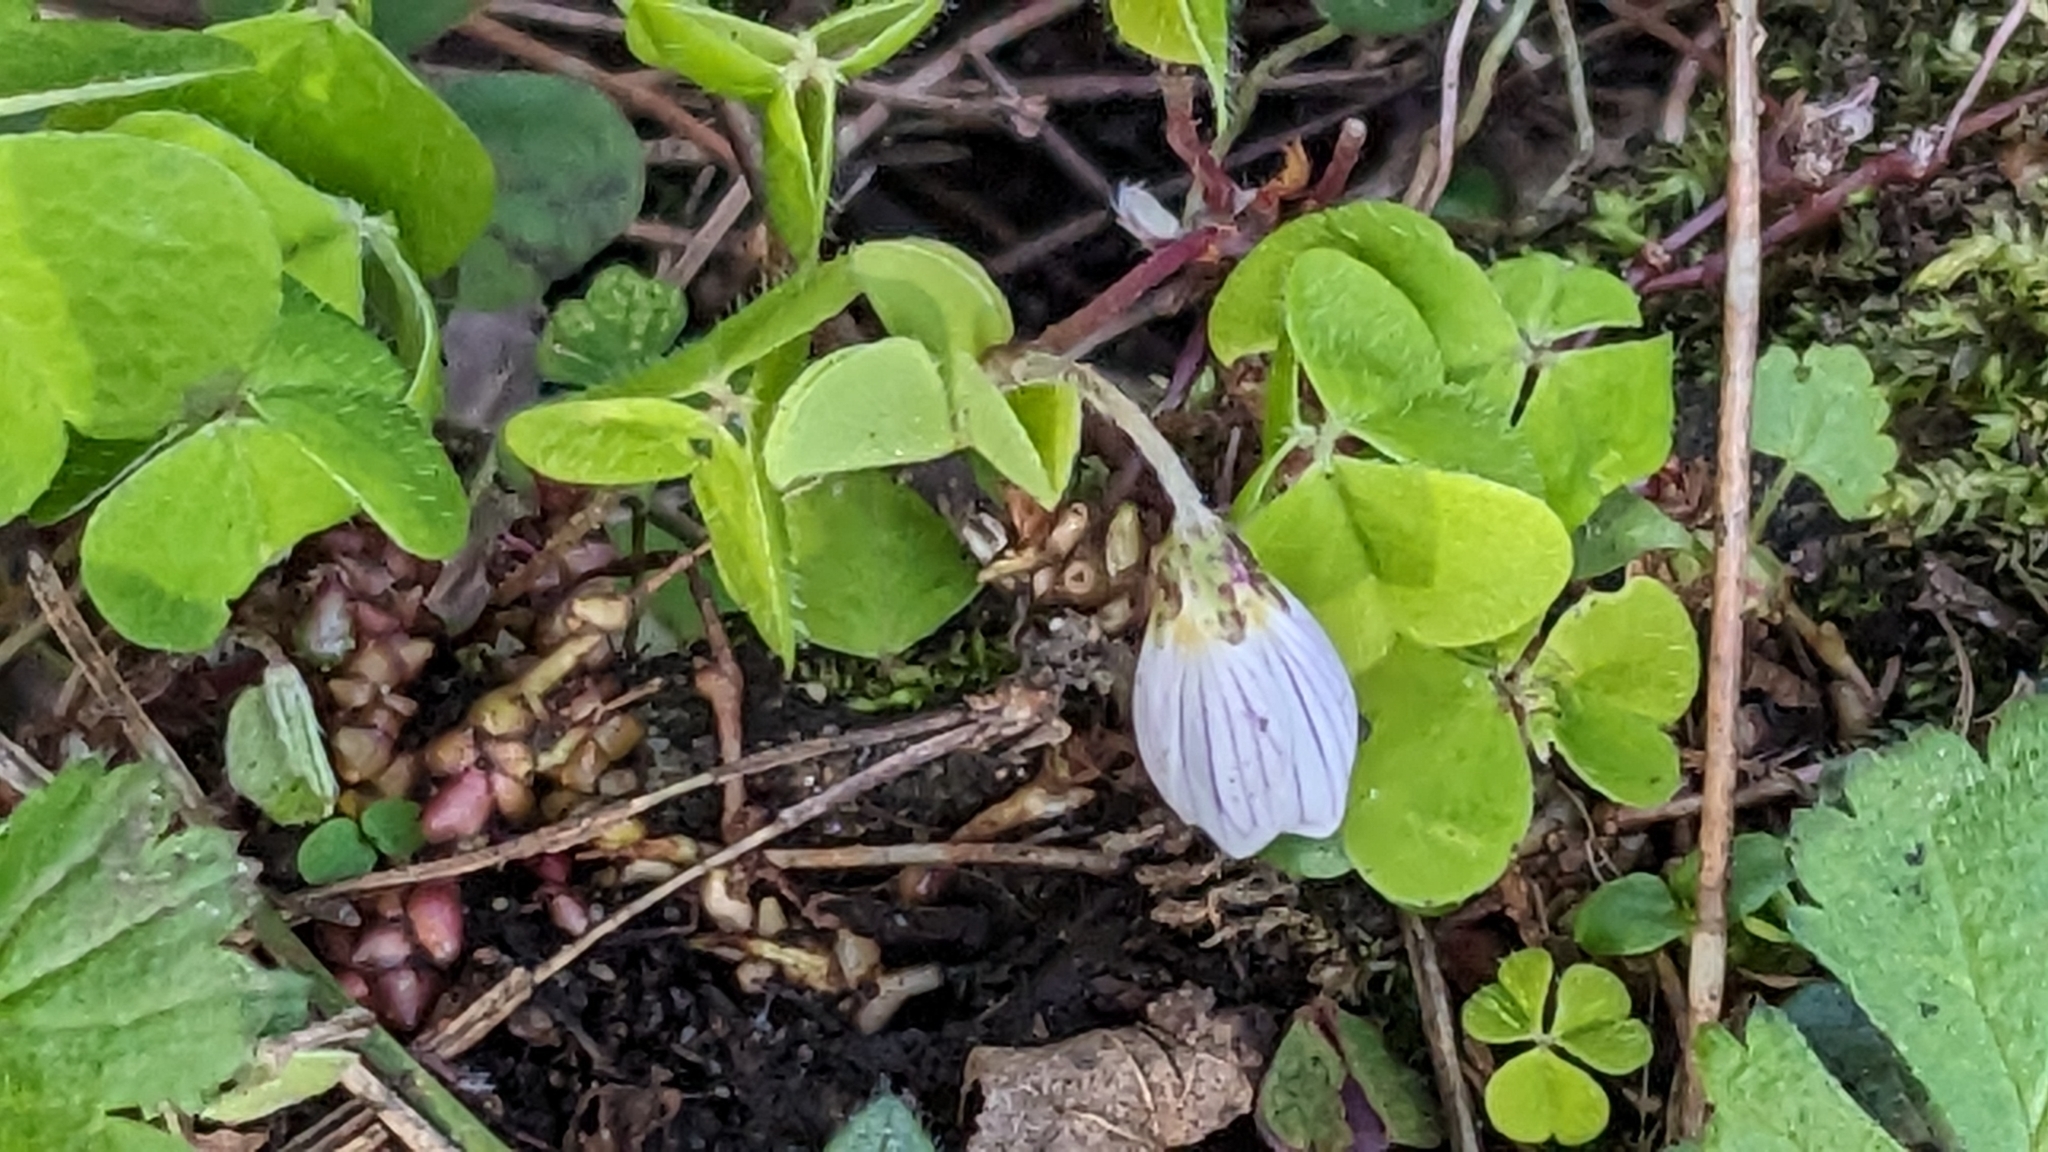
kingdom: Plantae
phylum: Tracheophyta
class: Magnoliopsida
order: Oxalidales
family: Oxalidaceae
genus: Oxalis
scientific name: Oxalis acetosella
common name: Wood-sorrel
